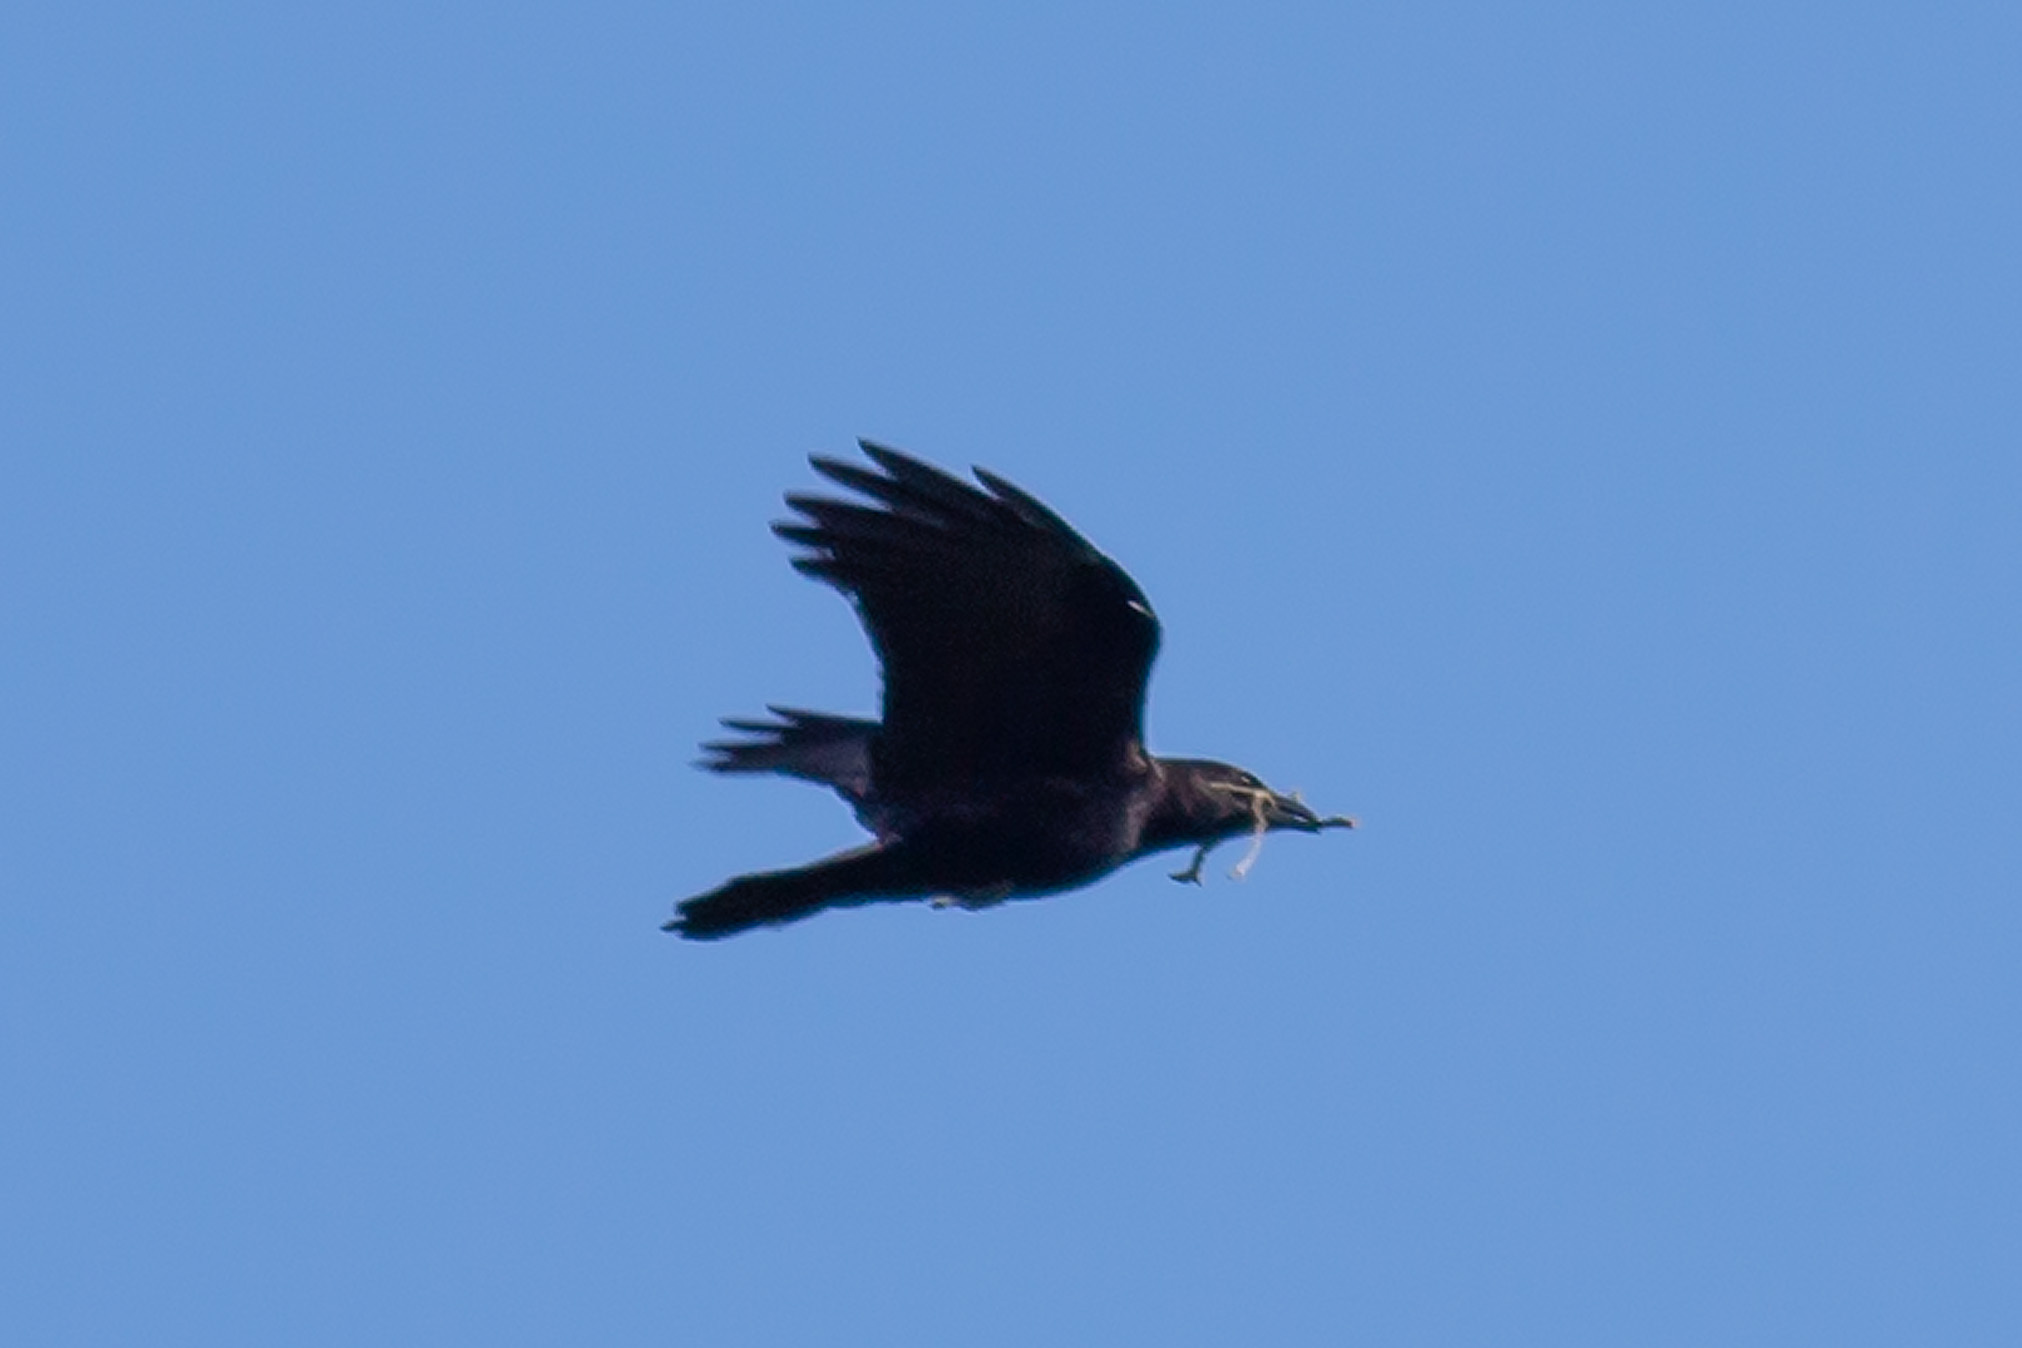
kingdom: Animalia
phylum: Chordata
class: Aves
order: Passeriformes
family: Corvidae
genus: Corvus
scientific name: Corvus brachyrhynchos
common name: American crow
